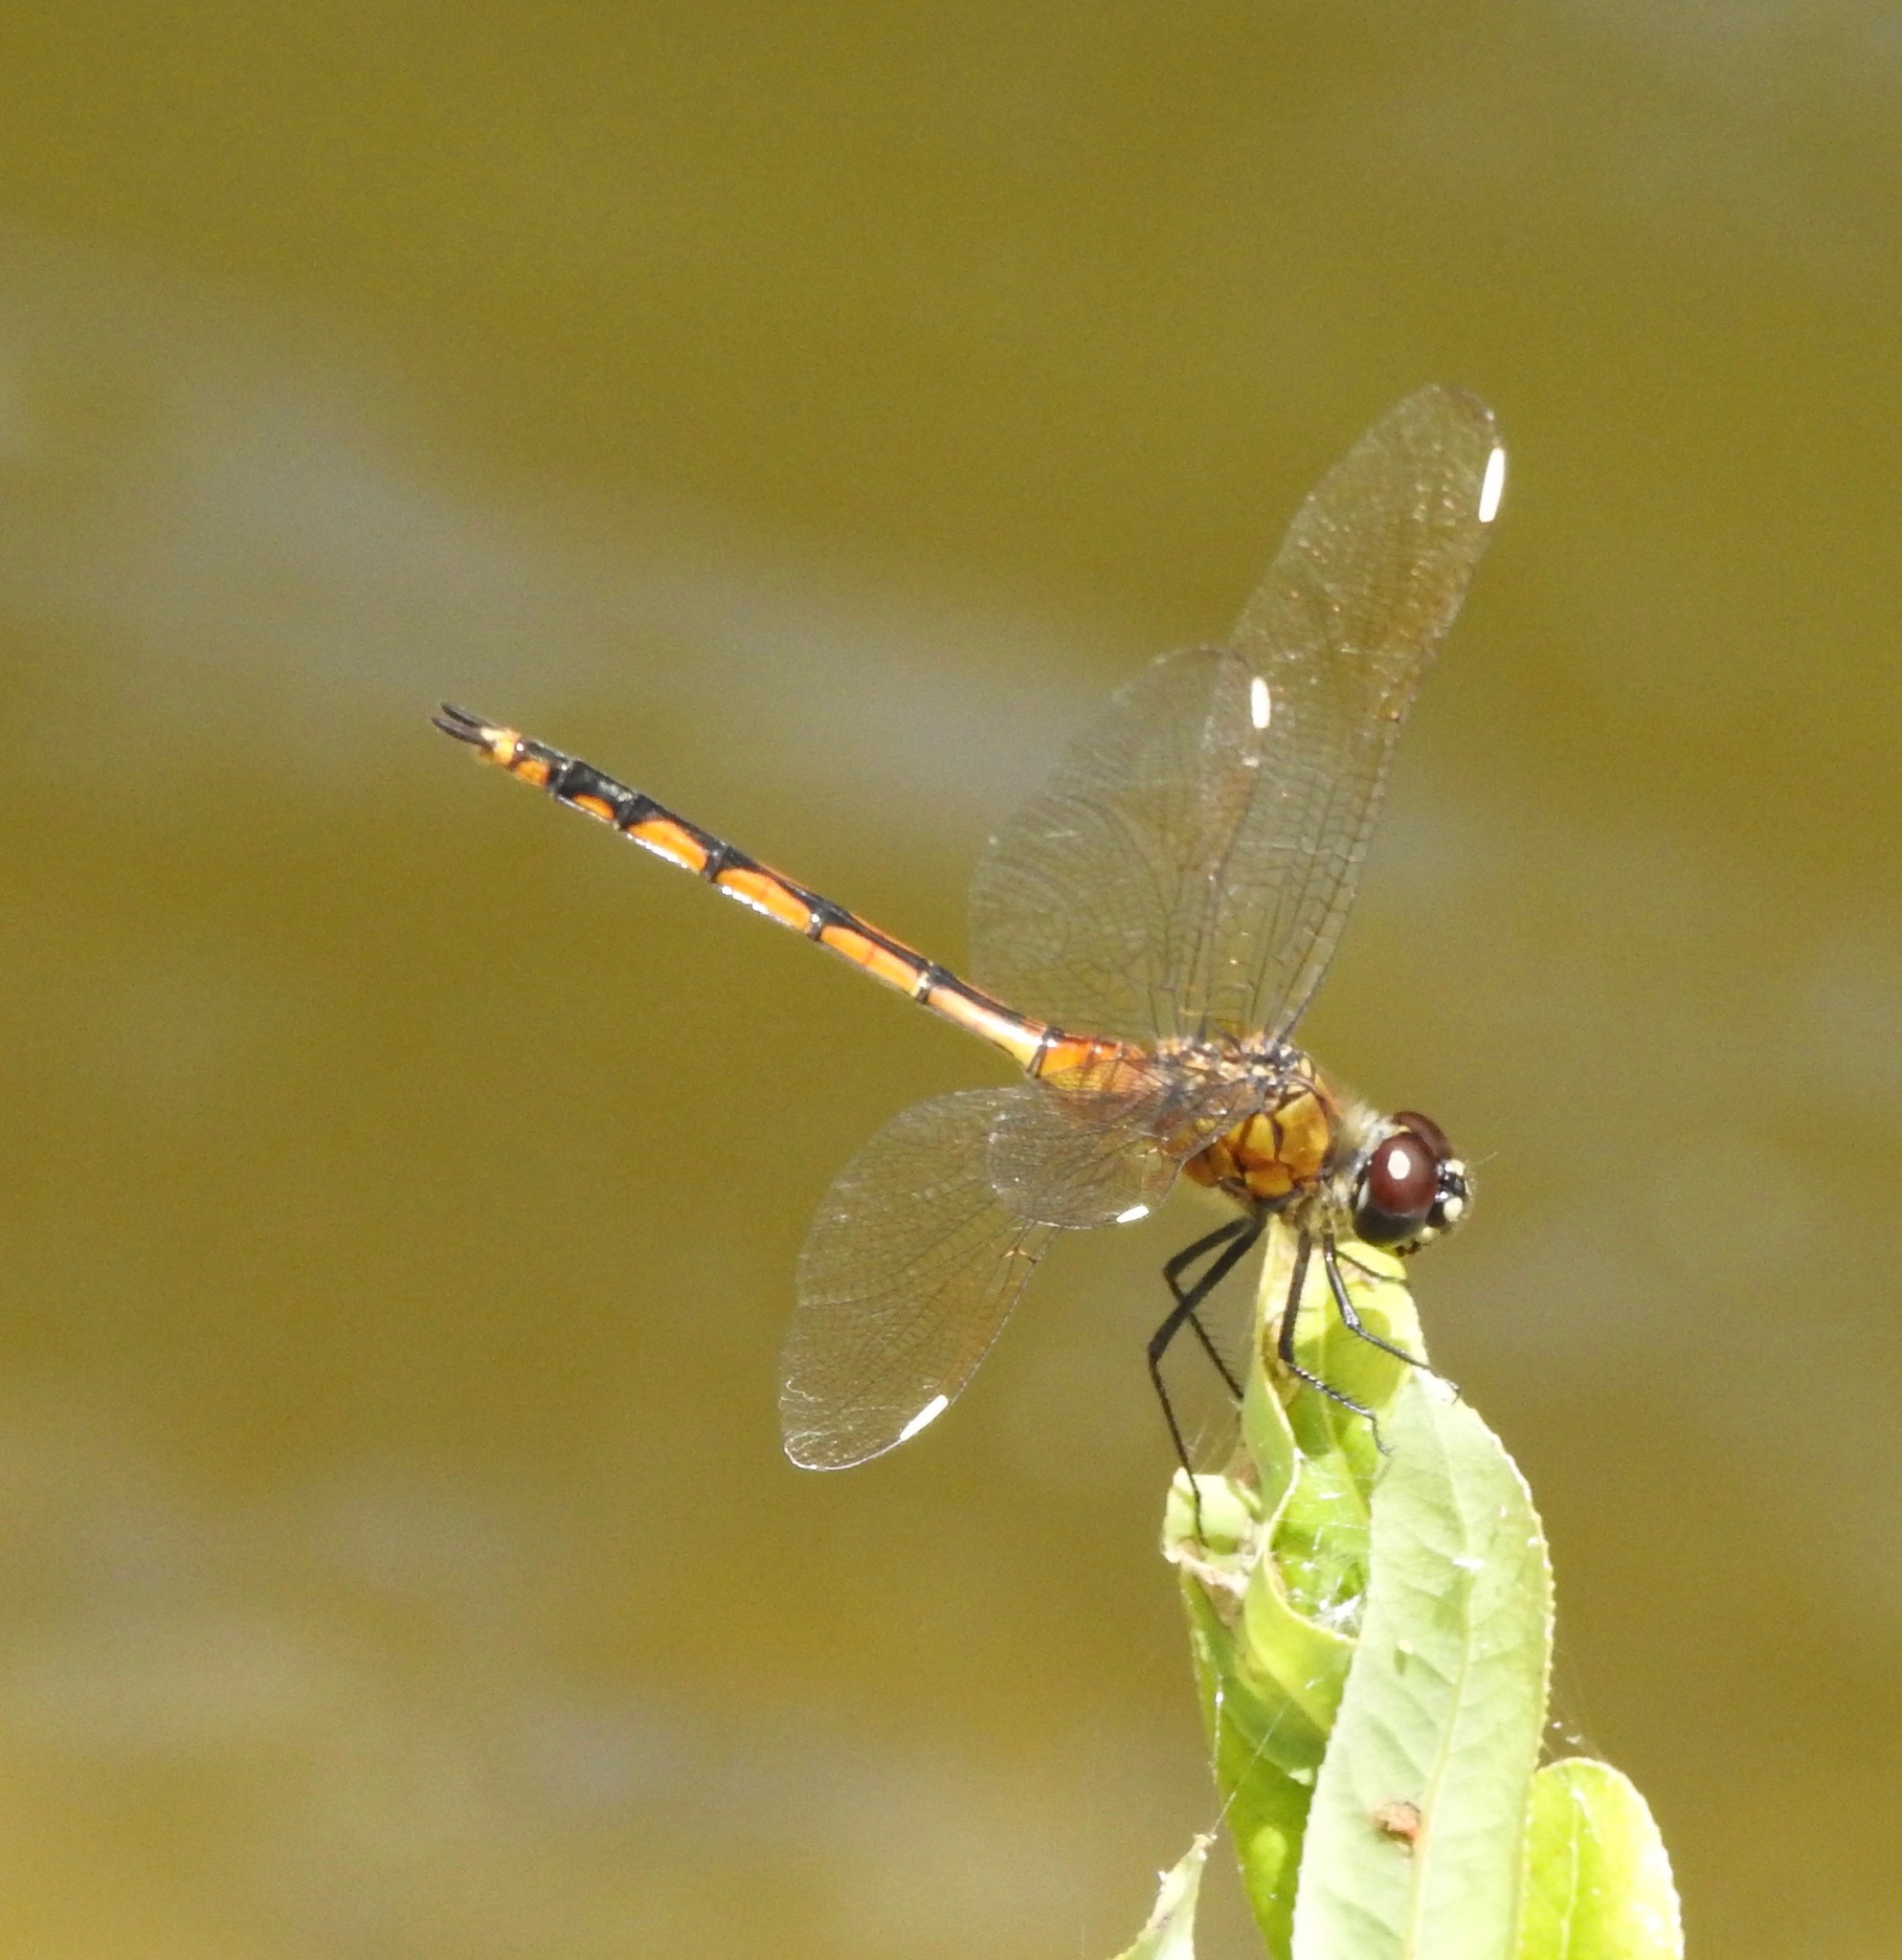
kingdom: Animalia
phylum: Arthropoda
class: Insecta
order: Odonata
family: Libellulidae
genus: Brachymesia
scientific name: Brachymesia gravida
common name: Four-spotted pennant
